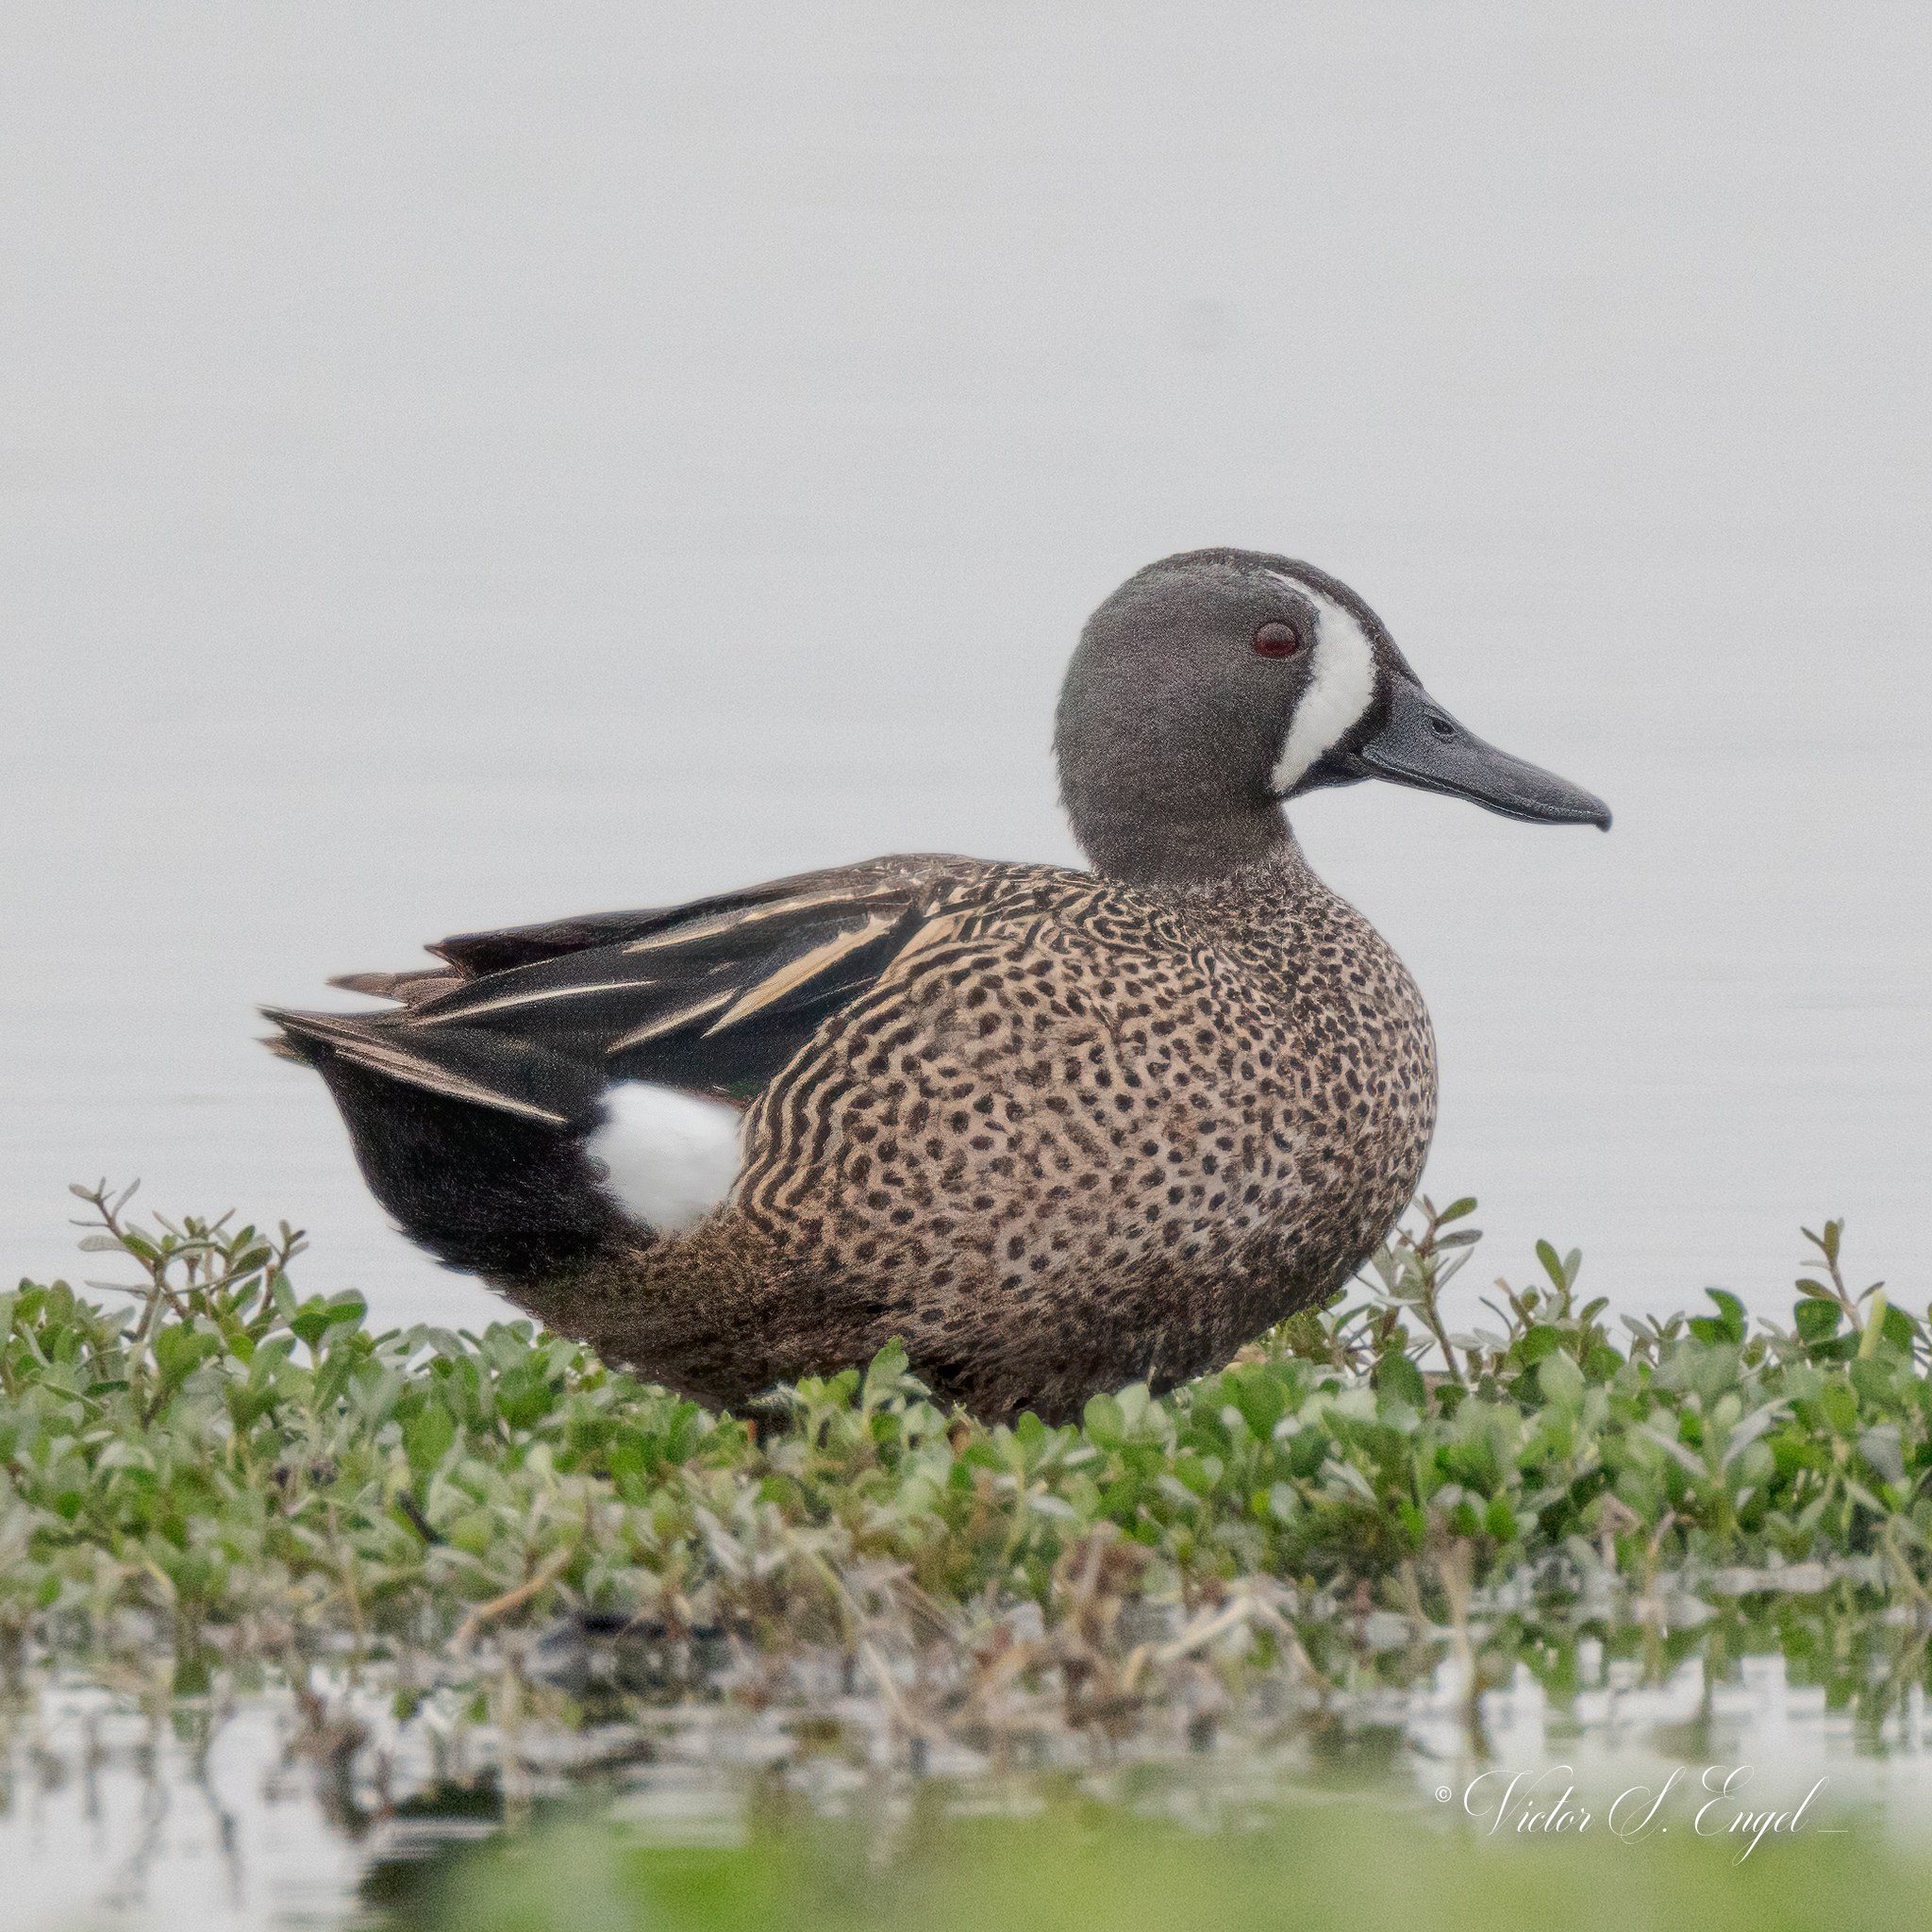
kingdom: Animalia
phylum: Chordata
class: Aves
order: Anseriformes
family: Anatidae
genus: Spatula
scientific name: Spatula discors
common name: Blue-winged teal
